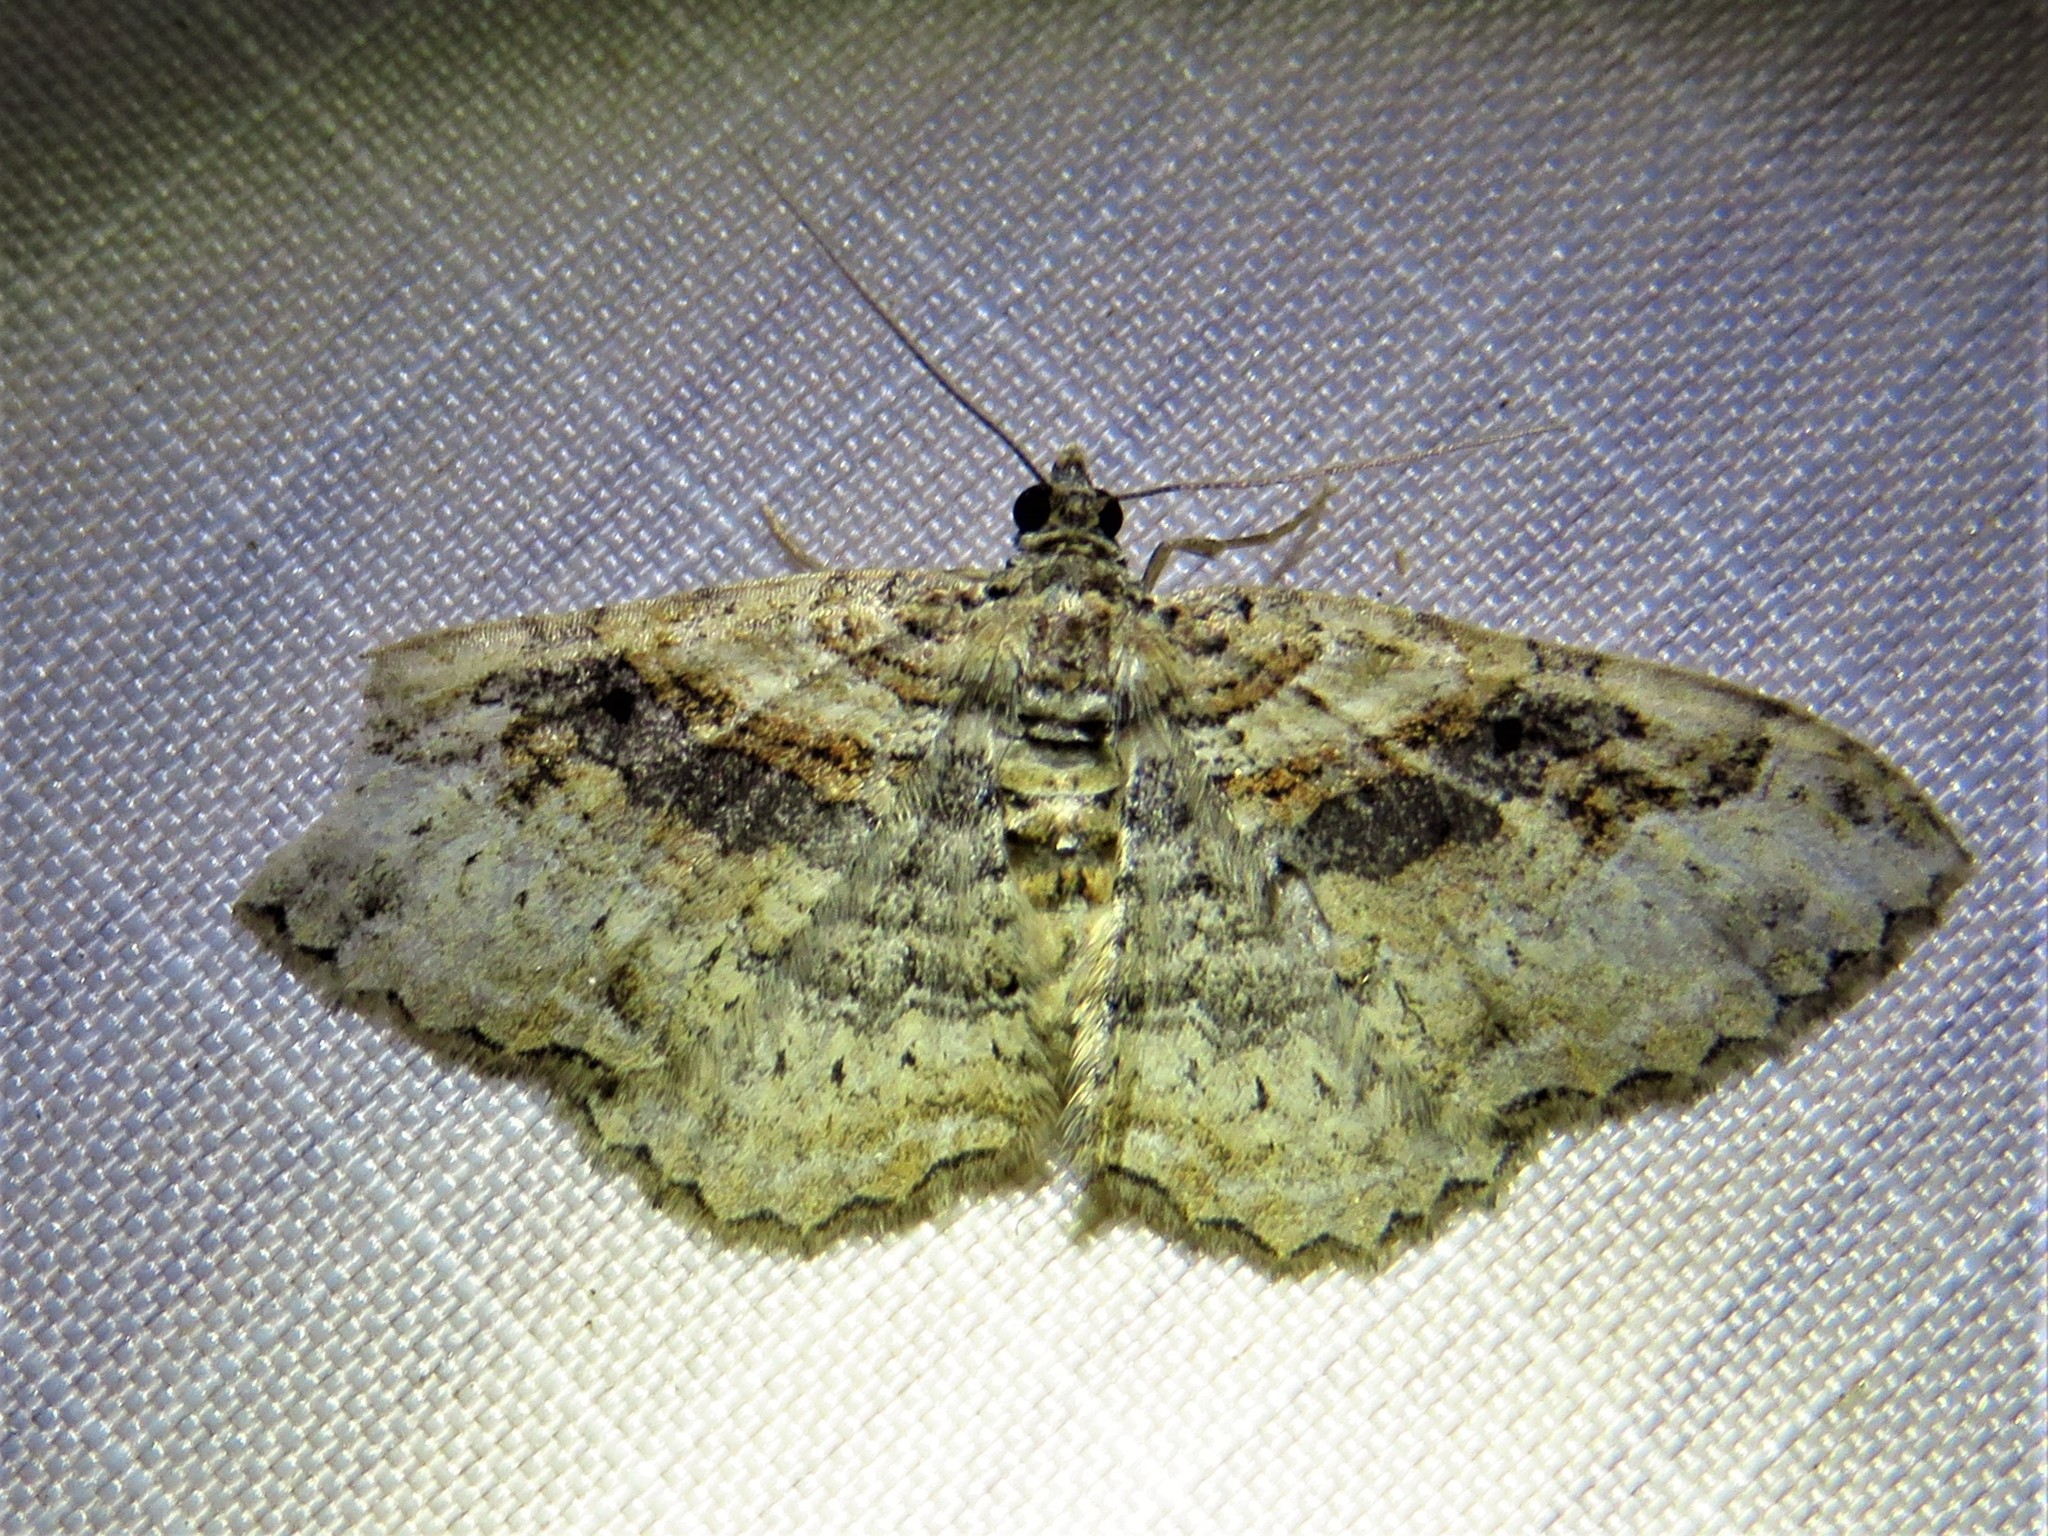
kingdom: Animalia
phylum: Arthropoda
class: Insecta
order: Lepidoptera
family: Geometridae
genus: Costaconvexa
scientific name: Costaconvexa centrostrigaria
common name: Bent-line carpet
